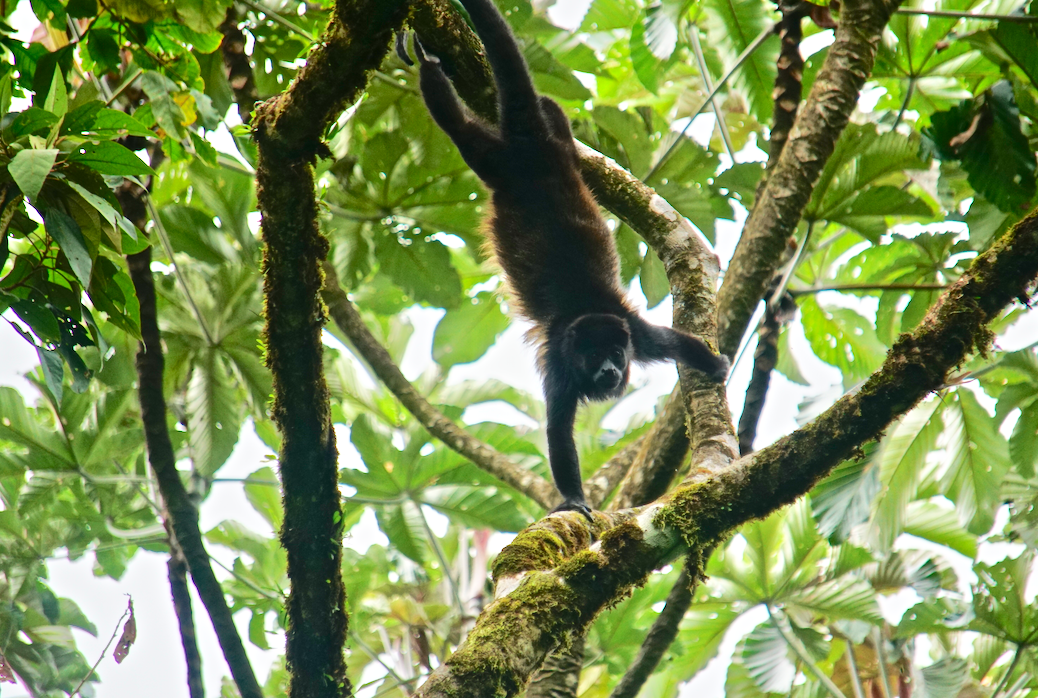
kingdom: Animalia
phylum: Chordata
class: Mammalia
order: Primates
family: Atelidae
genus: Alouatta
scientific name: Alouatta palliata
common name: Mantled howler
